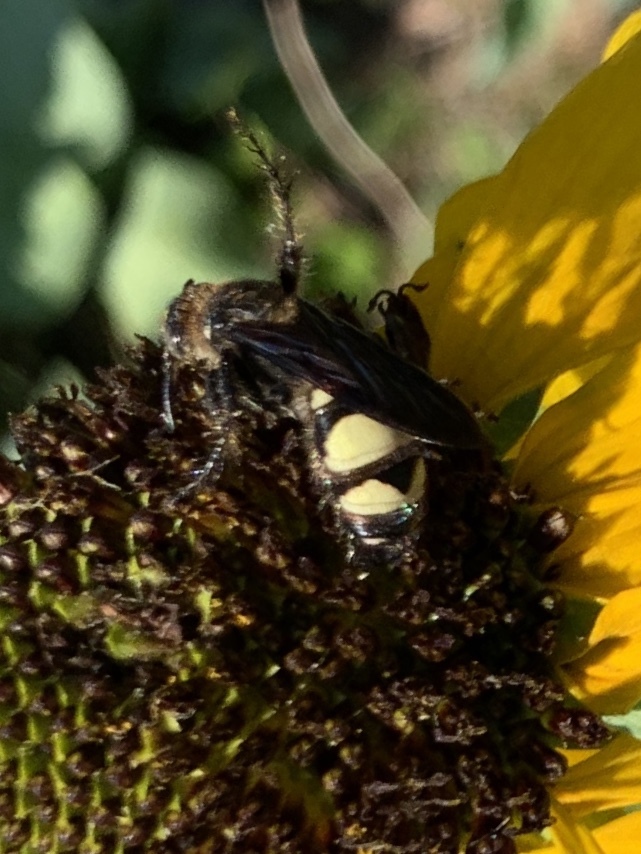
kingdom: Animalia
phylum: Arthropoda
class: Insecta
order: Hymenoptera
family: Scoliidae
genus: Dielis
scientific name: Dielis
